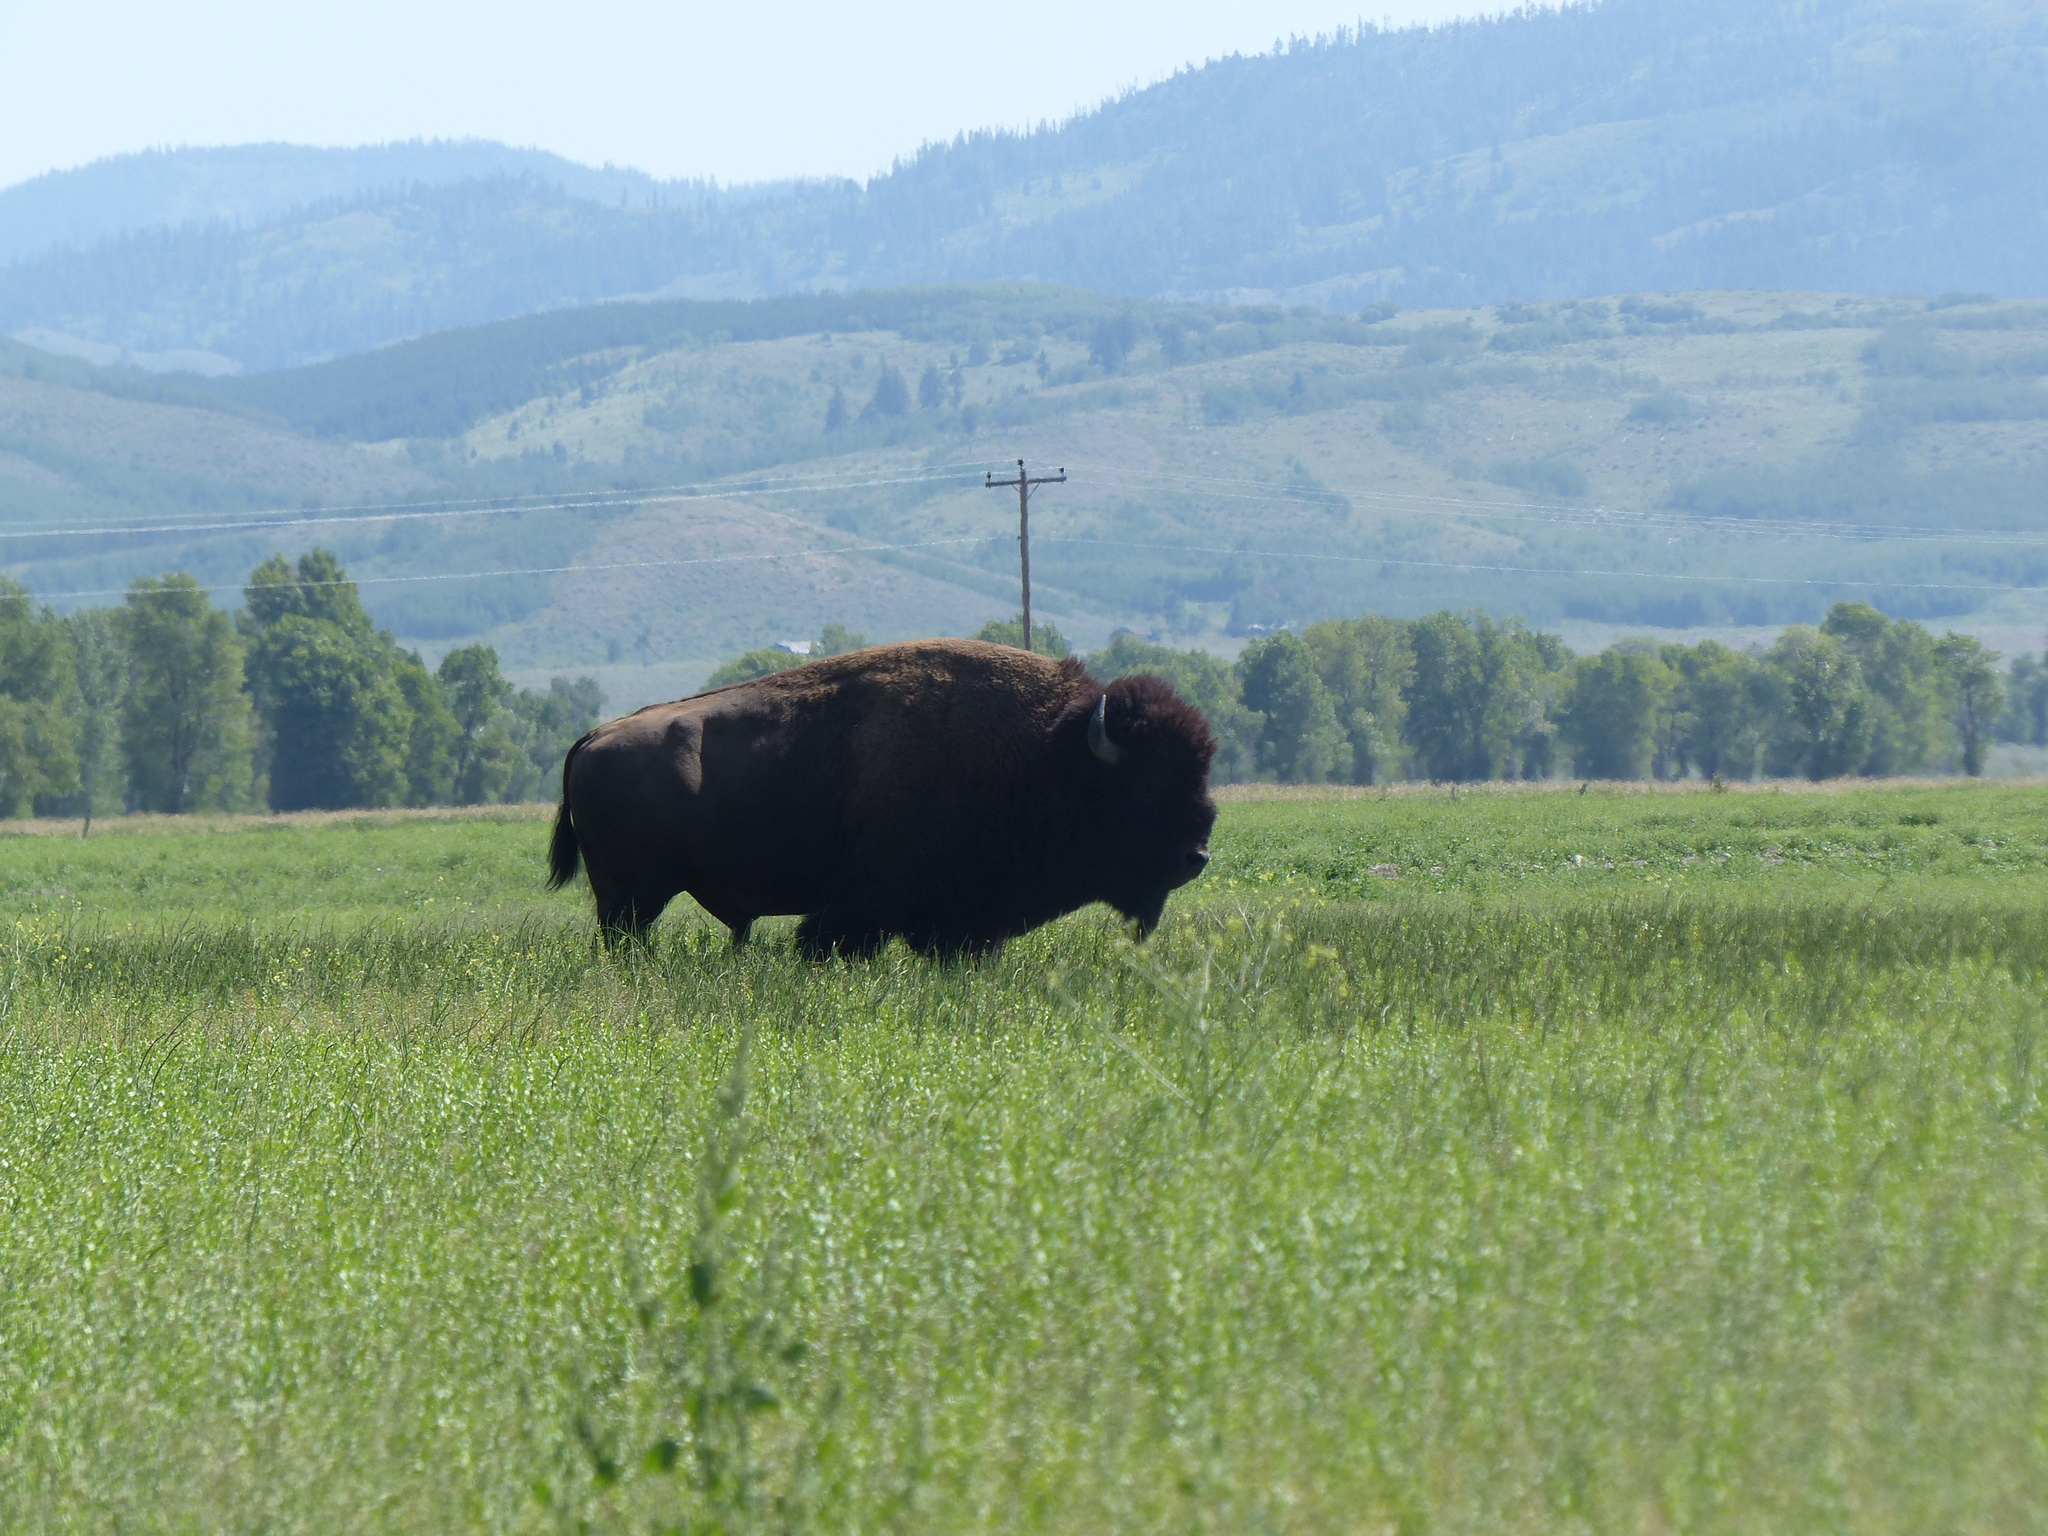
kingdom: Animalia
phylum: Chordata
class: Mammalia
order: Artiodactyla
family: Bovidae
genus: Bison
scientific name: Bison bison
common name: American bison
